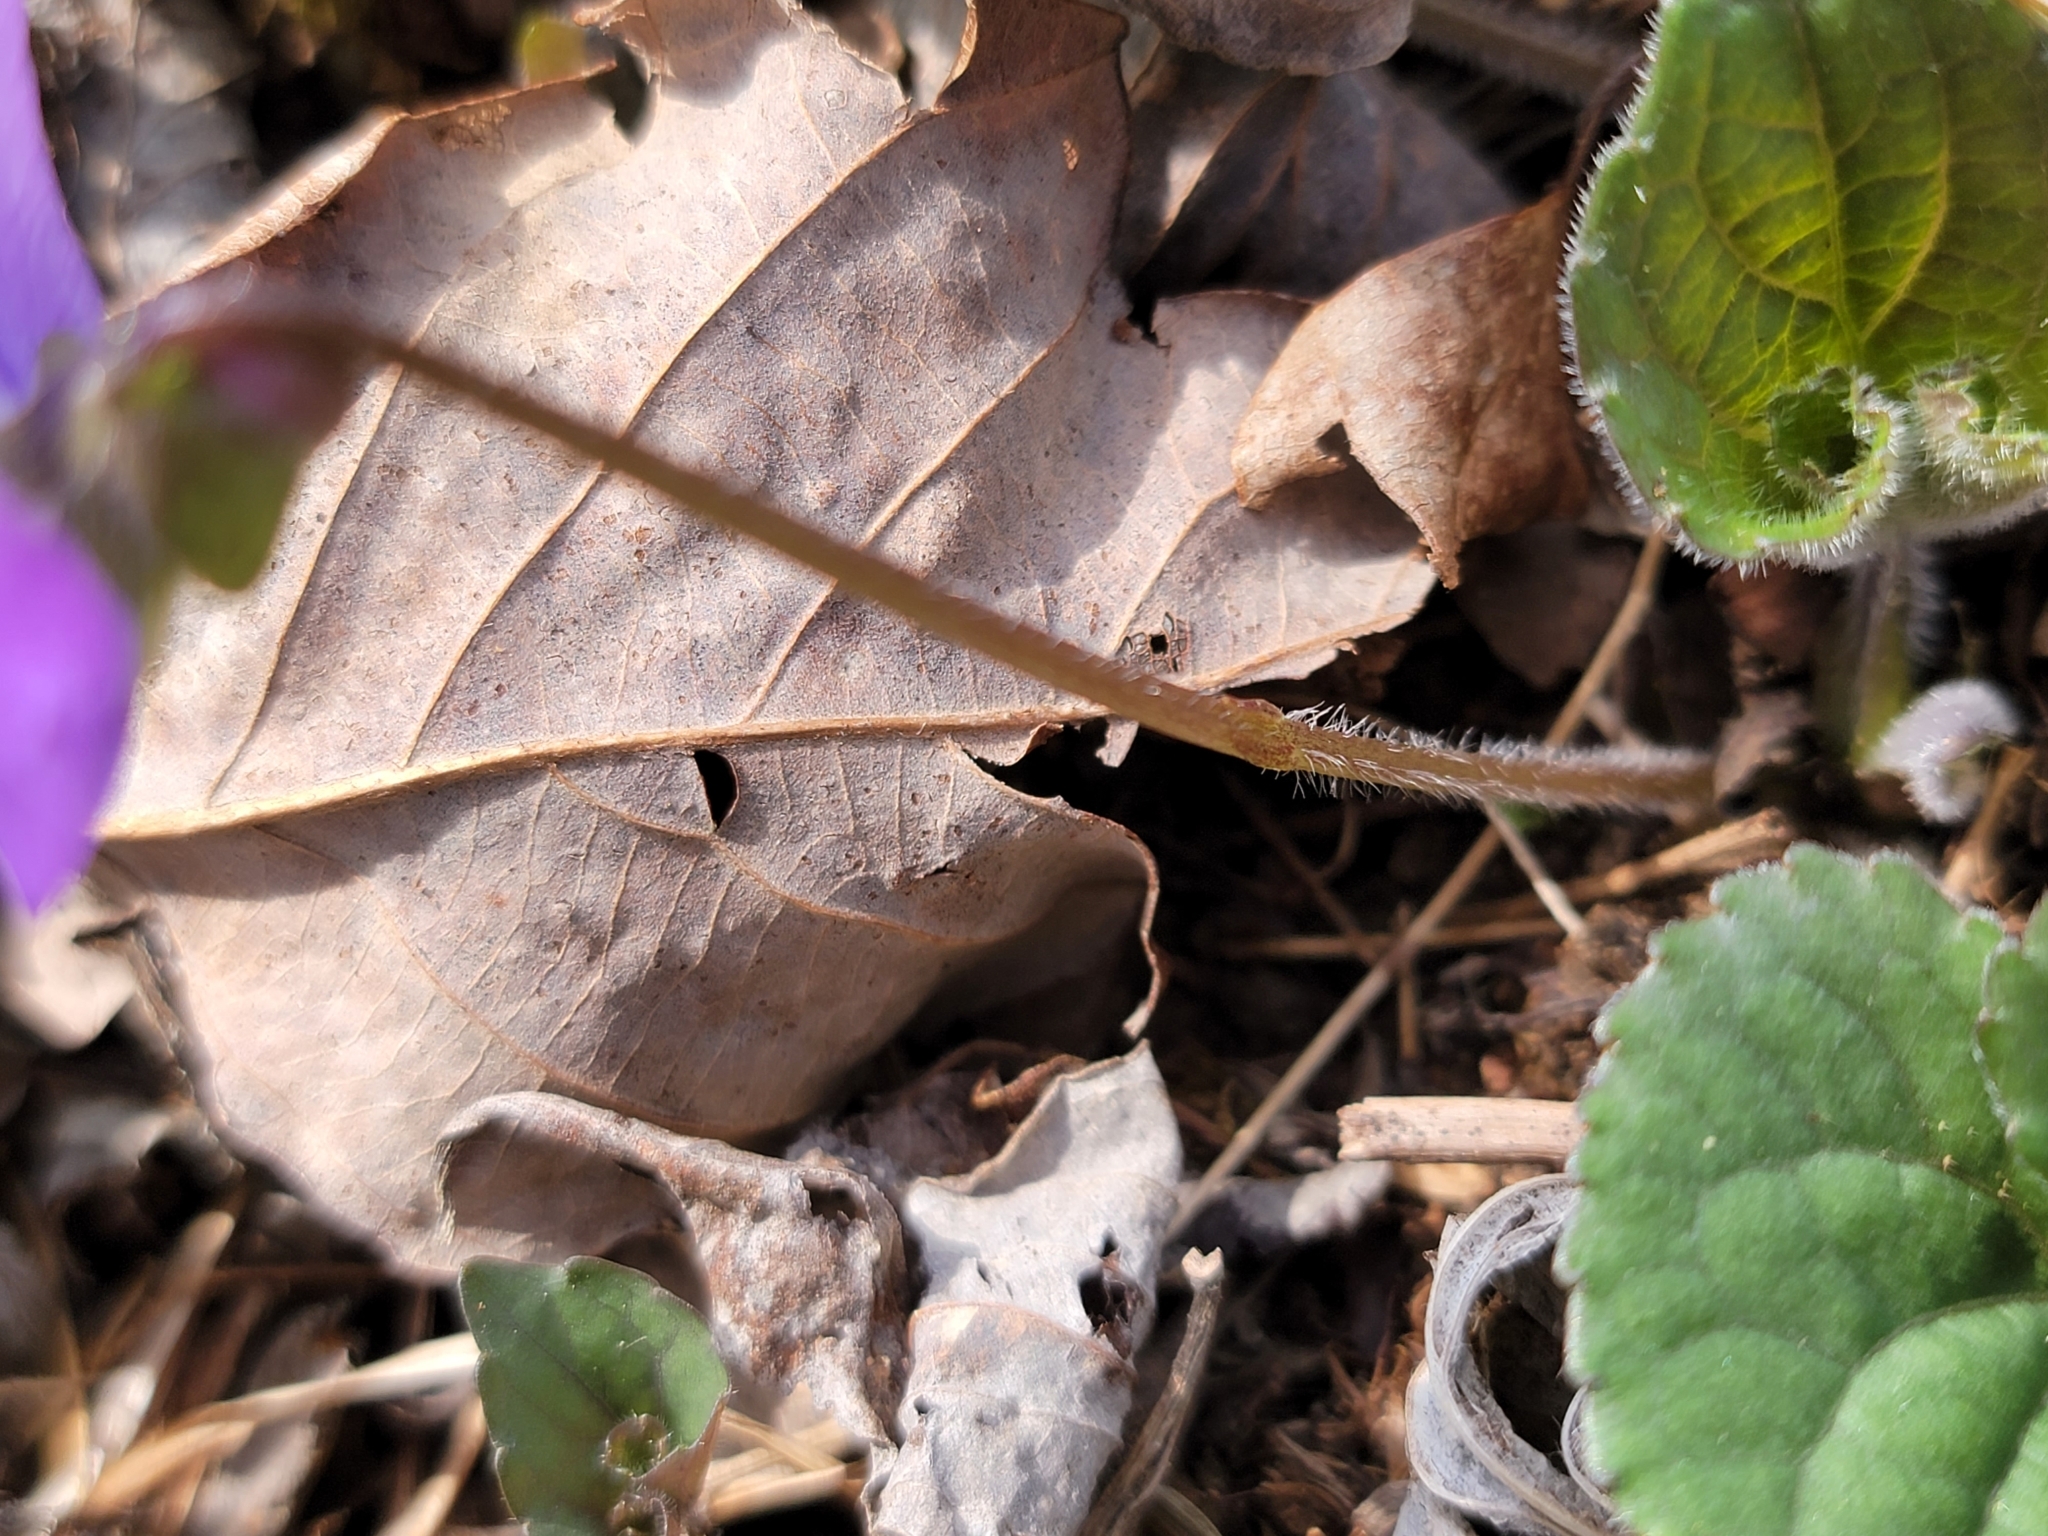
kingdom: Plantae
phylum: Tracheophyta
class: Magnoliopsida
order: Malpighiales
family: Violaceae
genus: Viola
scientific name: Viola sororia
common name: Dooryard violet
